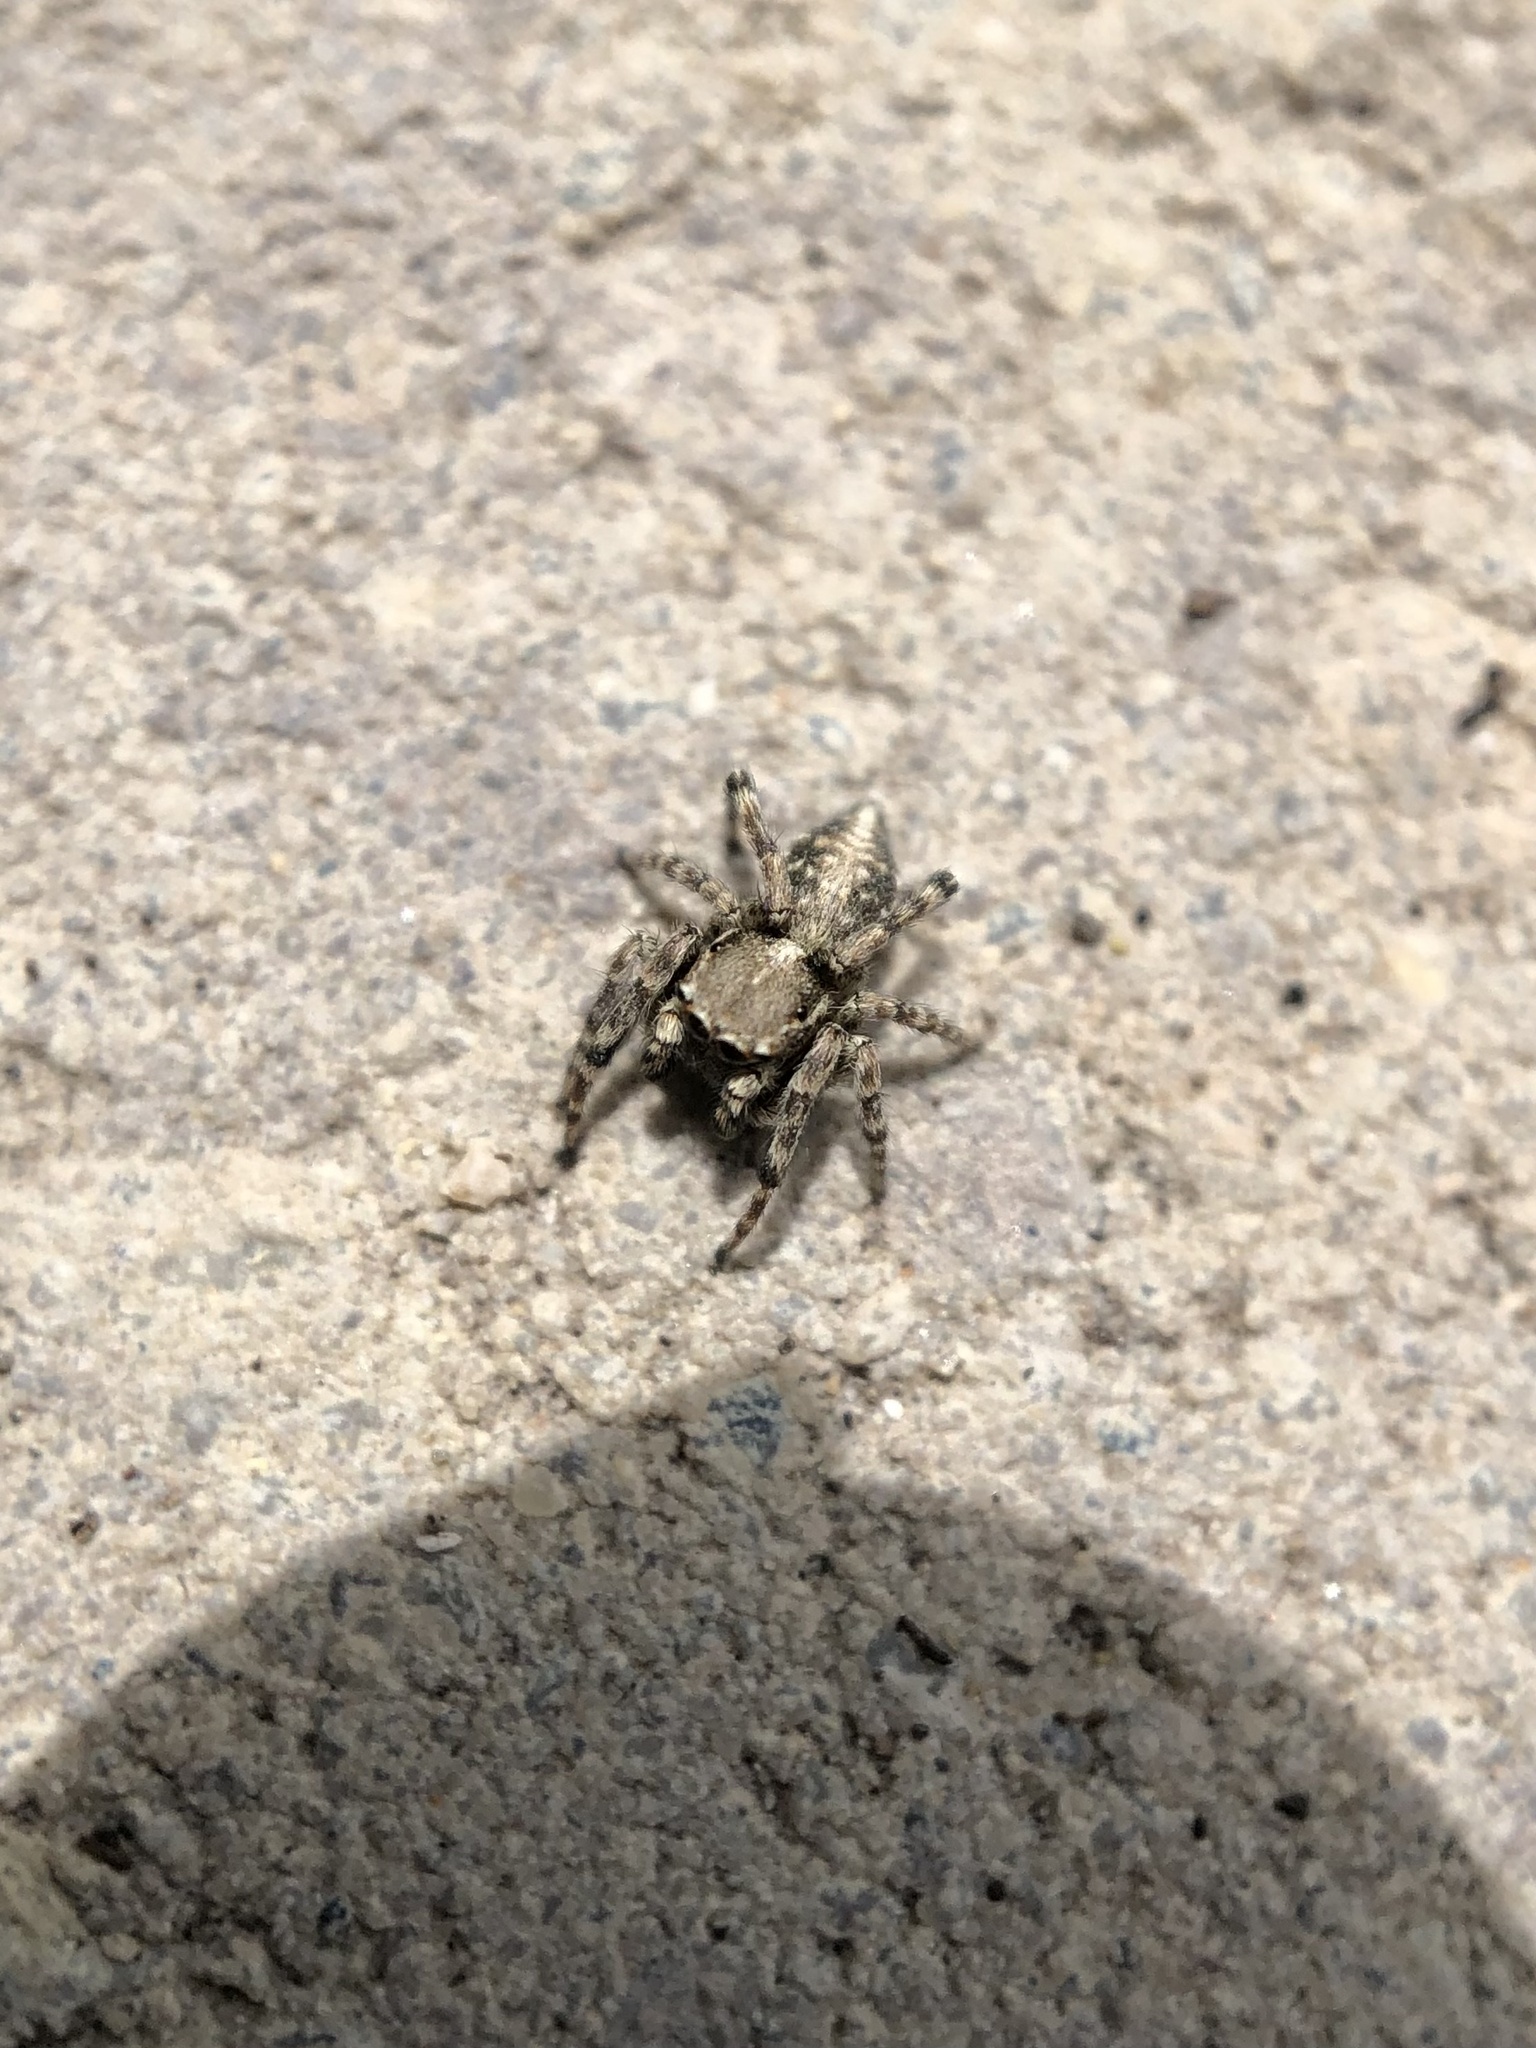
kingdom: Animalia
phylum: Arthropoda
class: Arachnida
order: Araneae
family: Salticidae
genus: Attulus
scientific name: Attulus ammophilus
